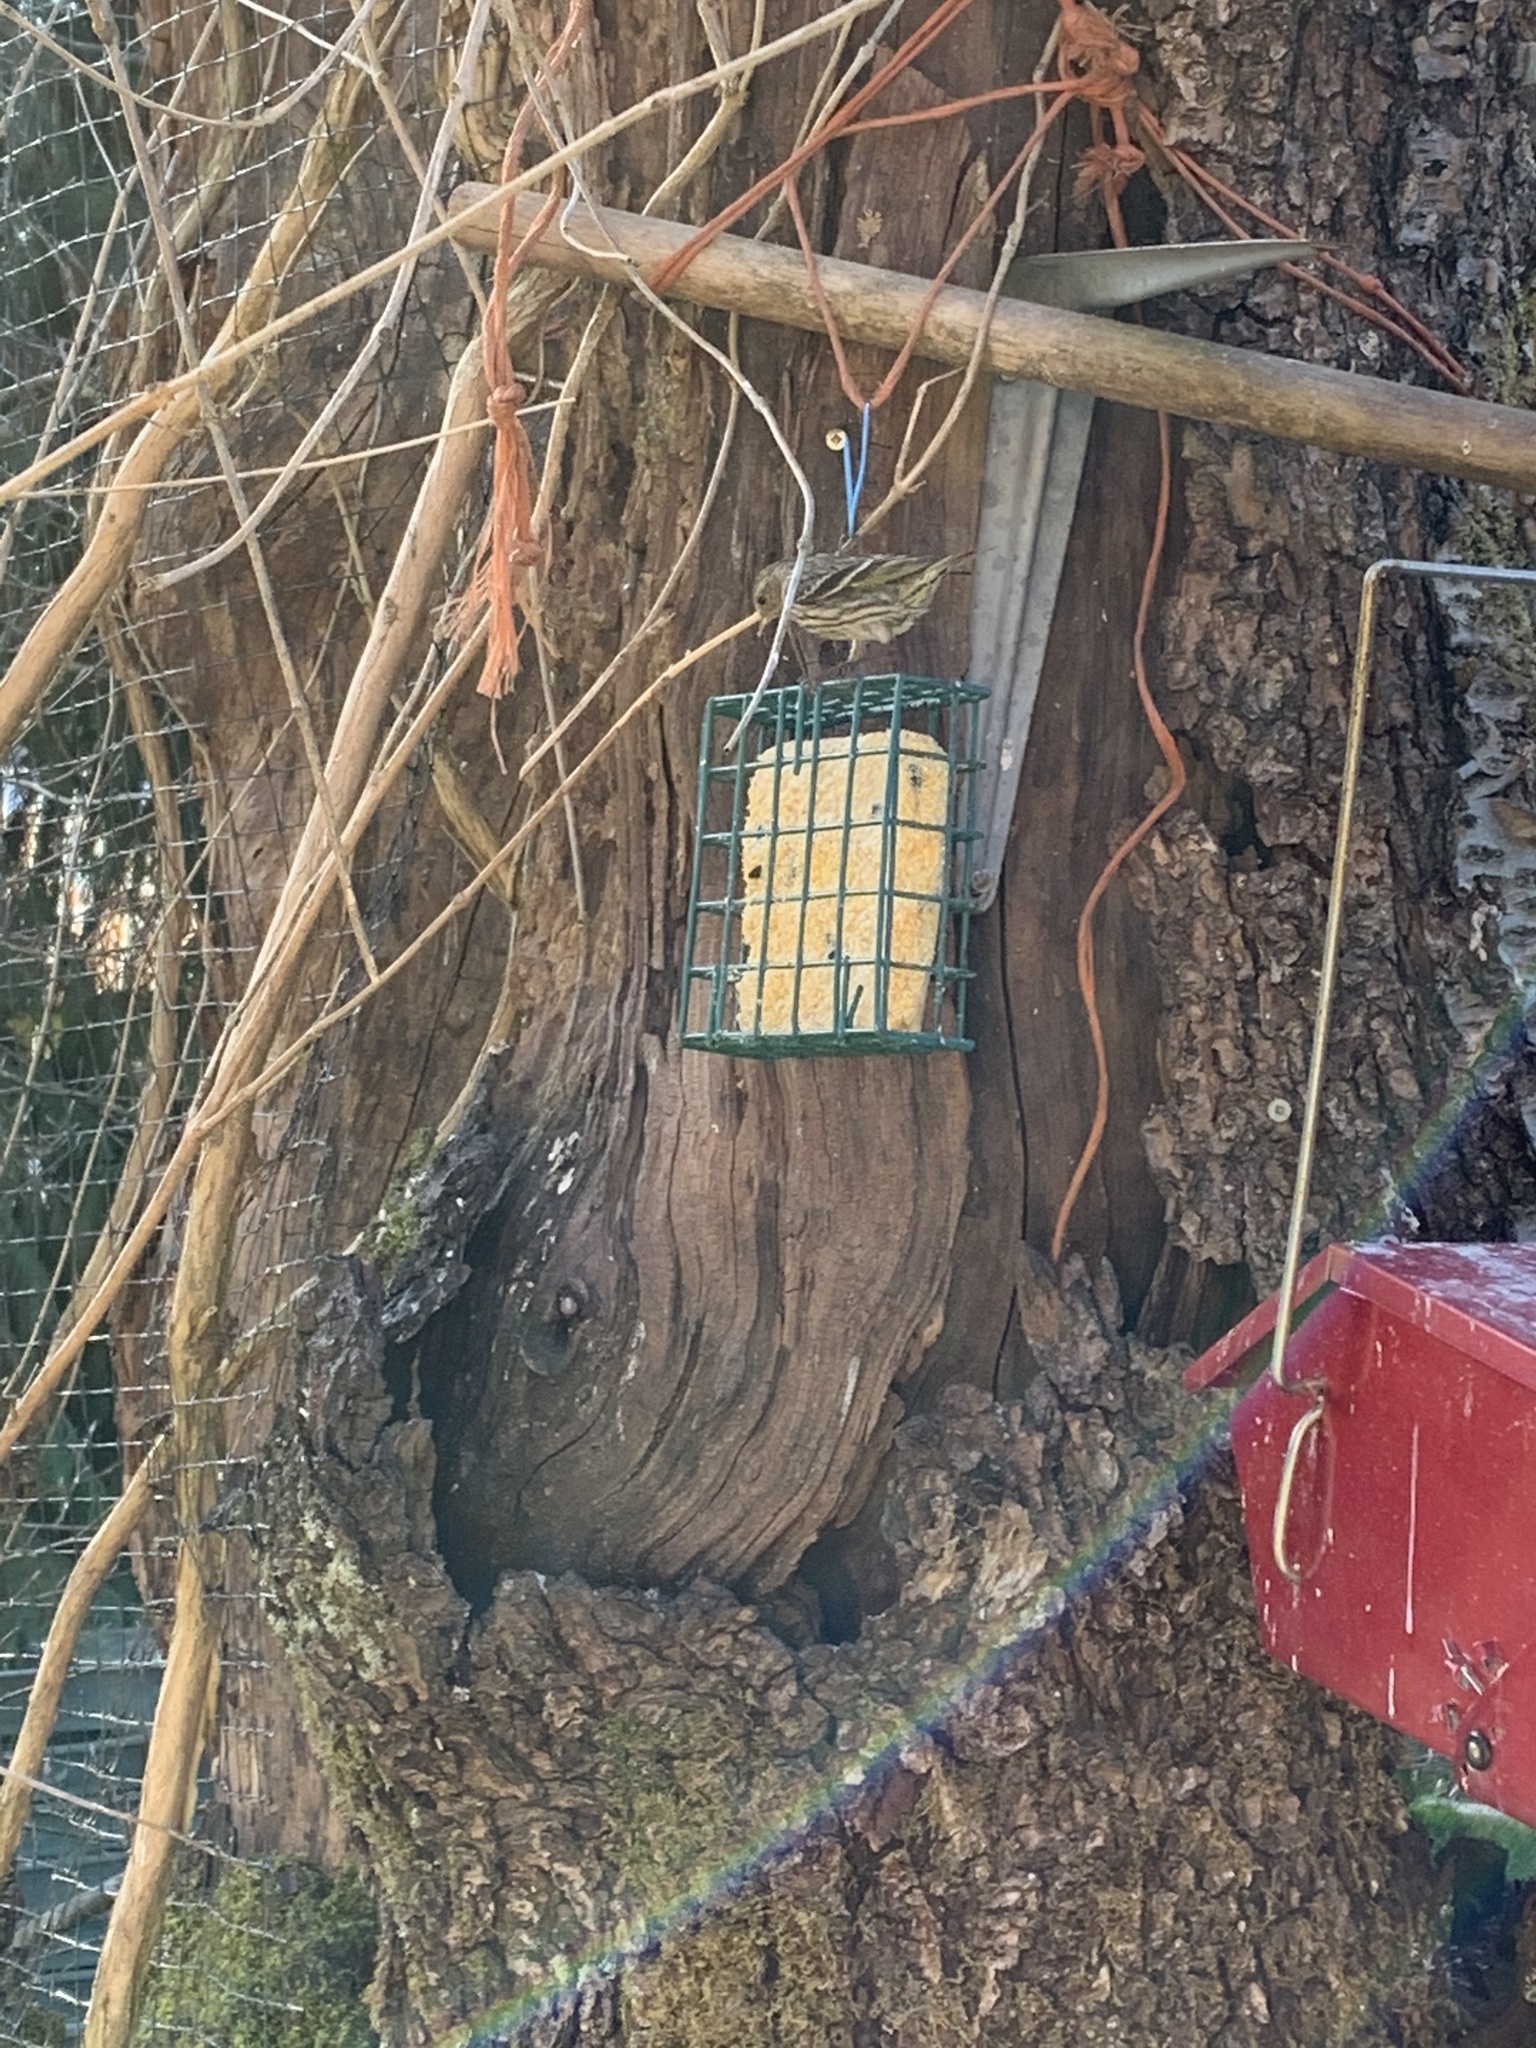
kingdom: Animalia
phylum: Chordata
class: Aves
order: Passeriformes
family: Fringillidae
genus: Spinus
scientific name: Spinus pinus
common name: Pine siskin
